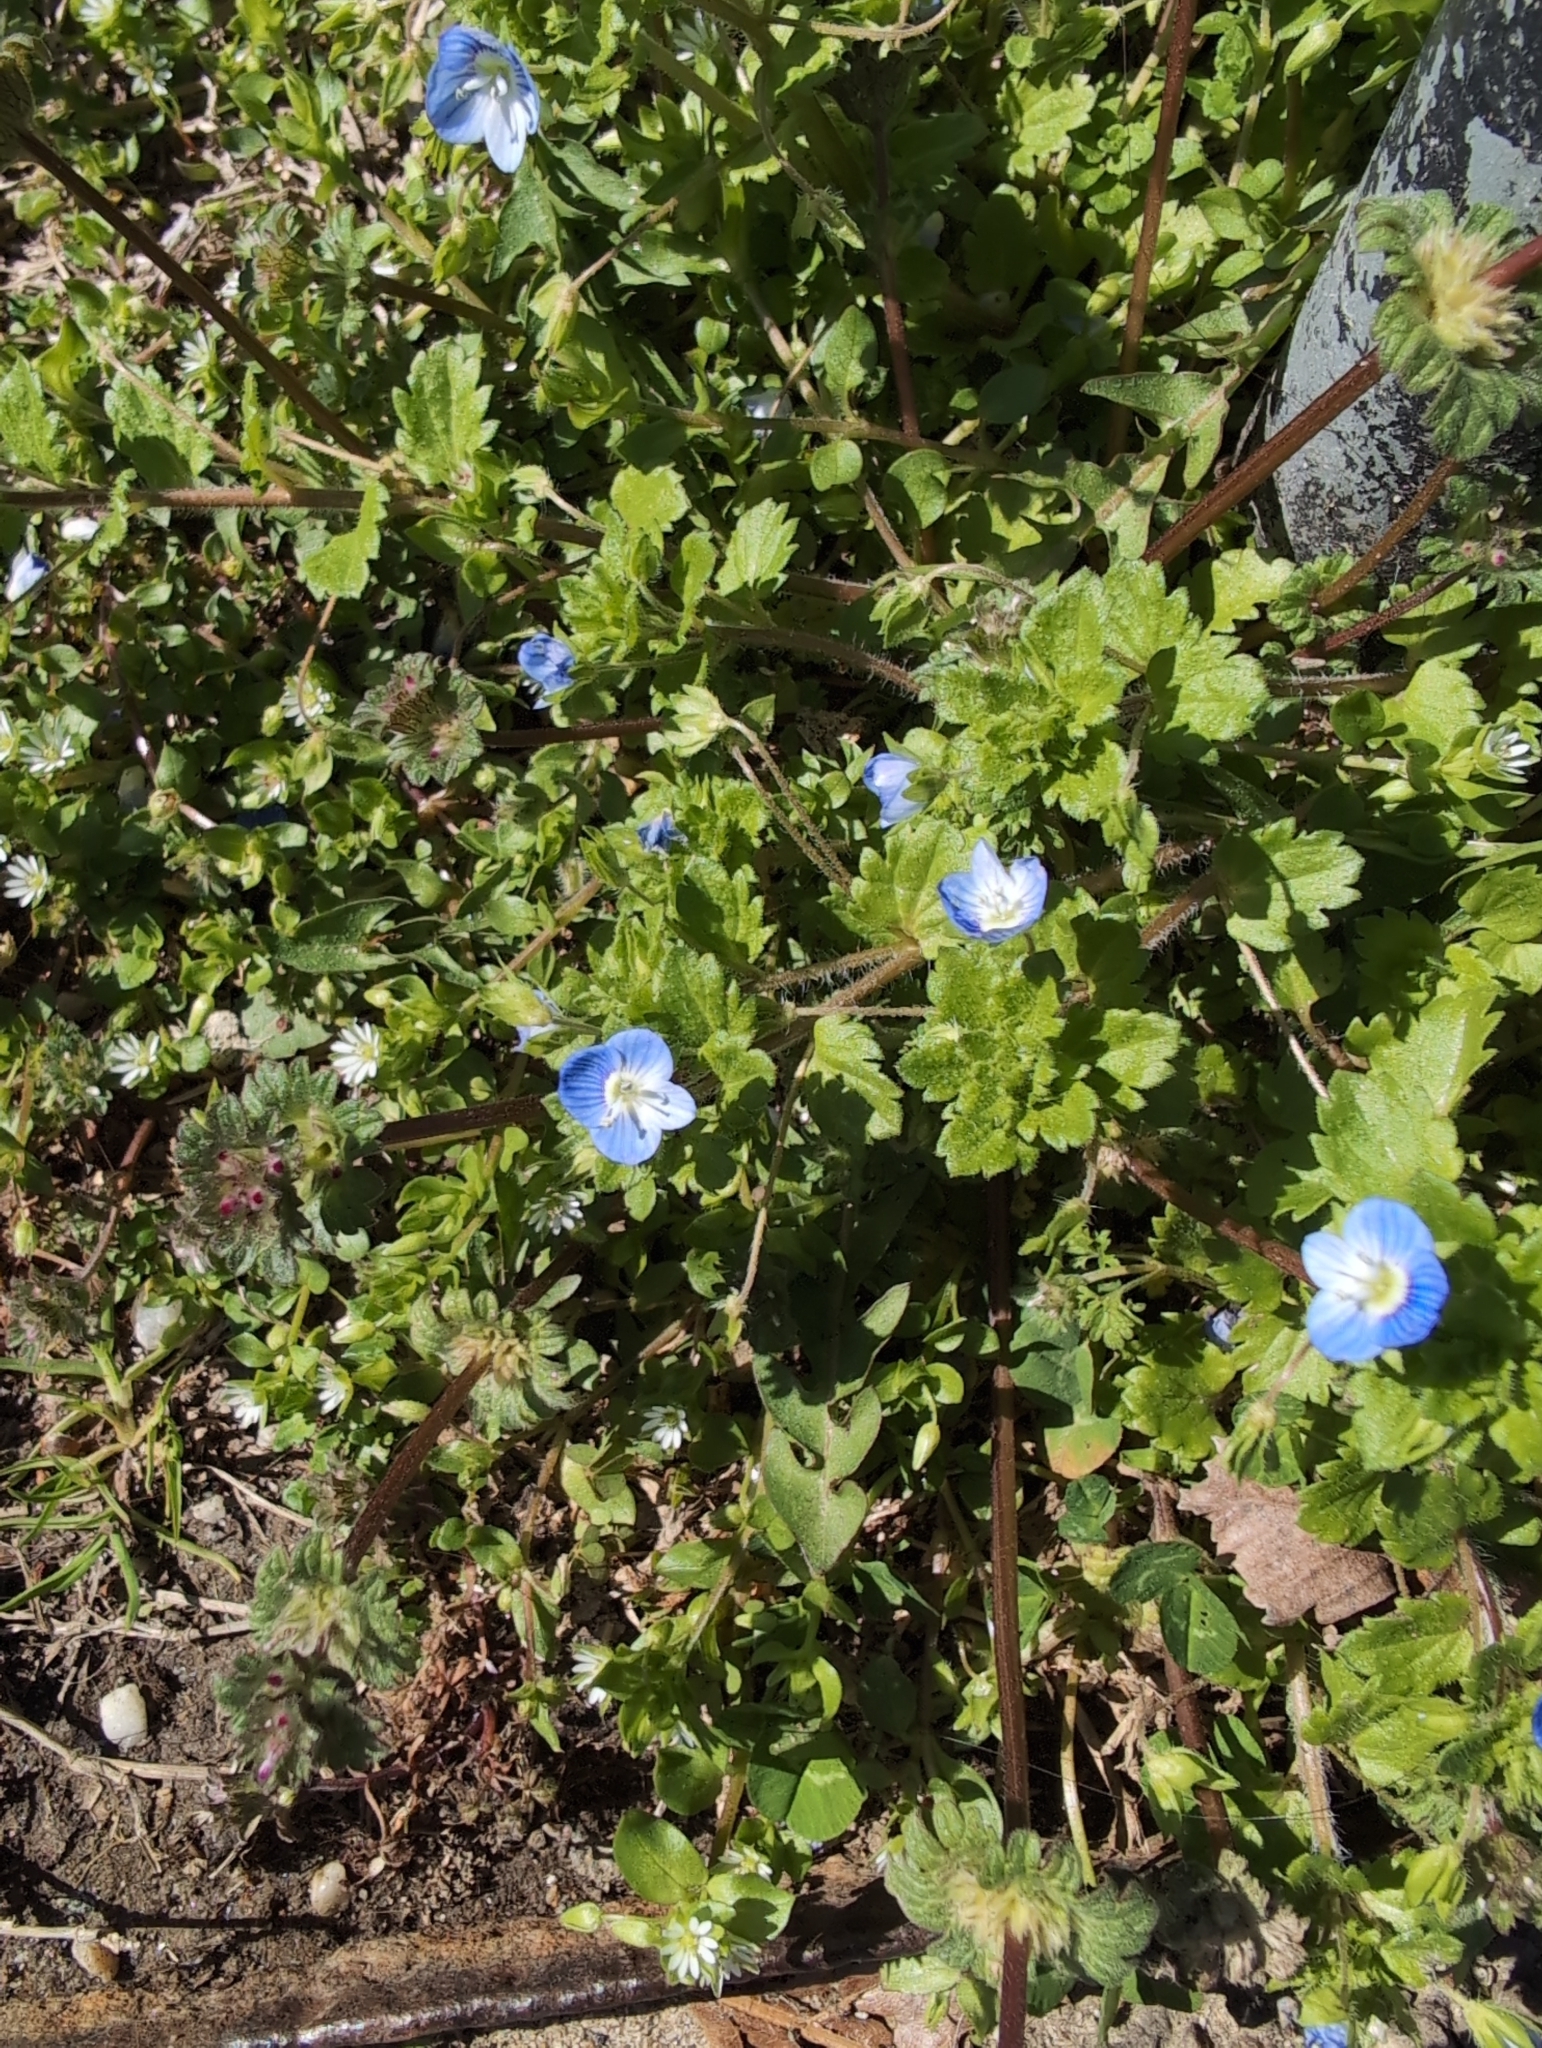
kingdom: Plantae
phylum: Tracheophyta
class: Magnoliopsida
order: Lamiales
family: Plantaginaceae
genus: Veronica
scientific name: Veronica persica
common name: Common field-speedwell
